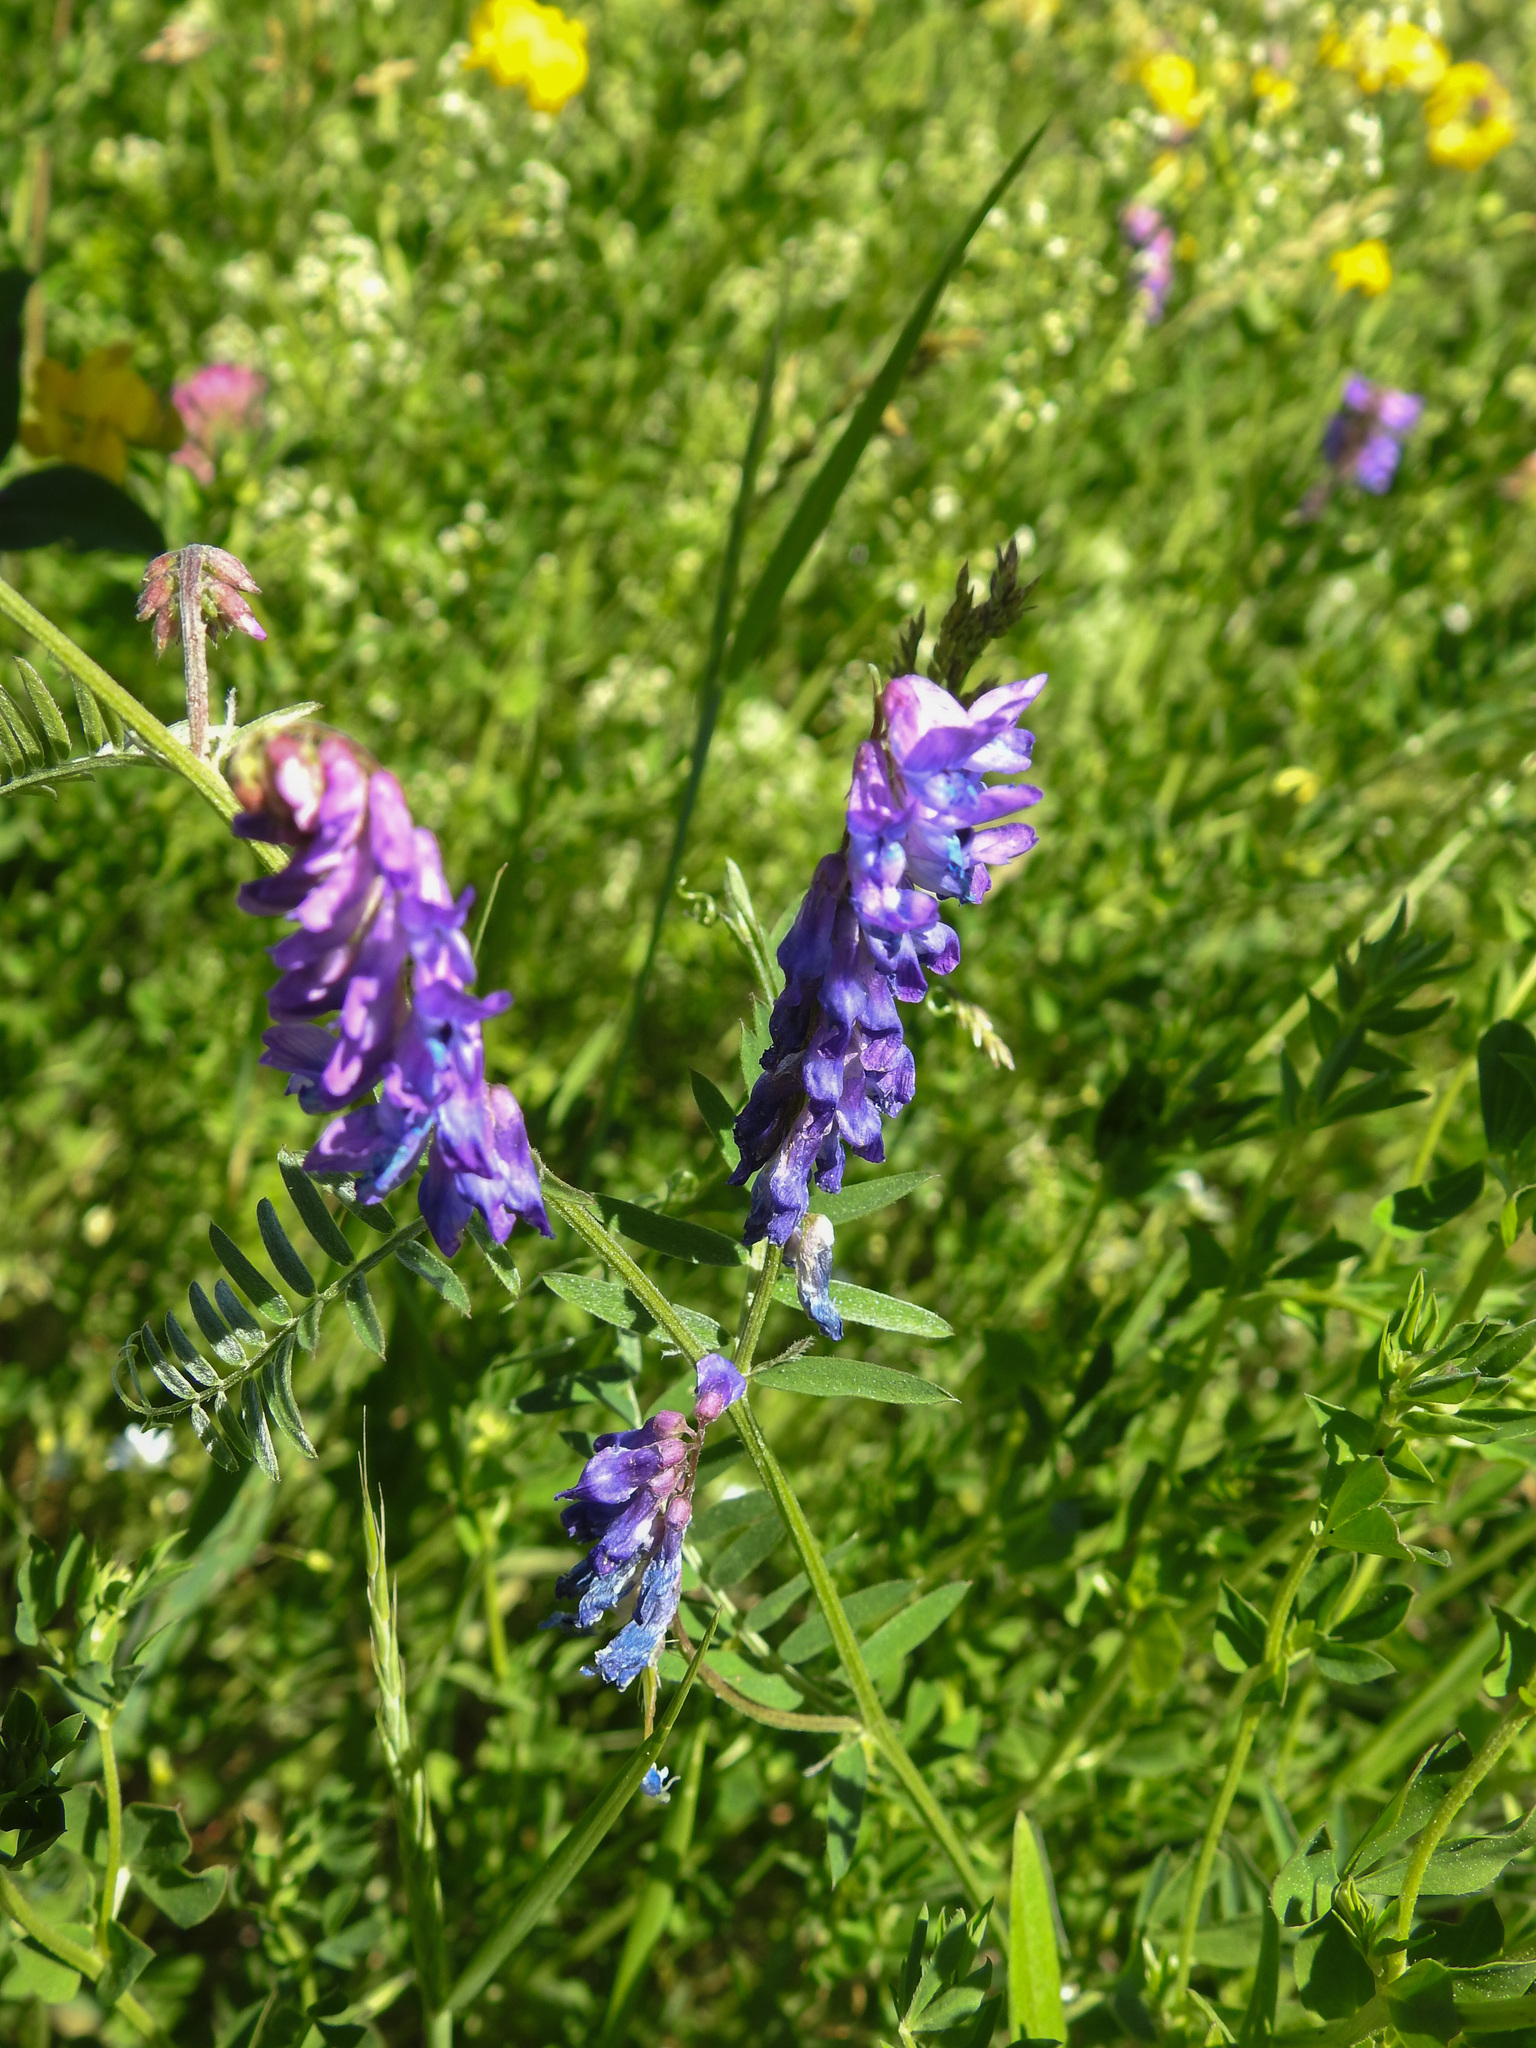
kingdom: Plantae
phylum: Tracheophyta
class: Magnoliopsida
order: Fabales
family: Fabaceae
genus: Vicia
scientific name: Vicia cracca
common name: Bird vetch
